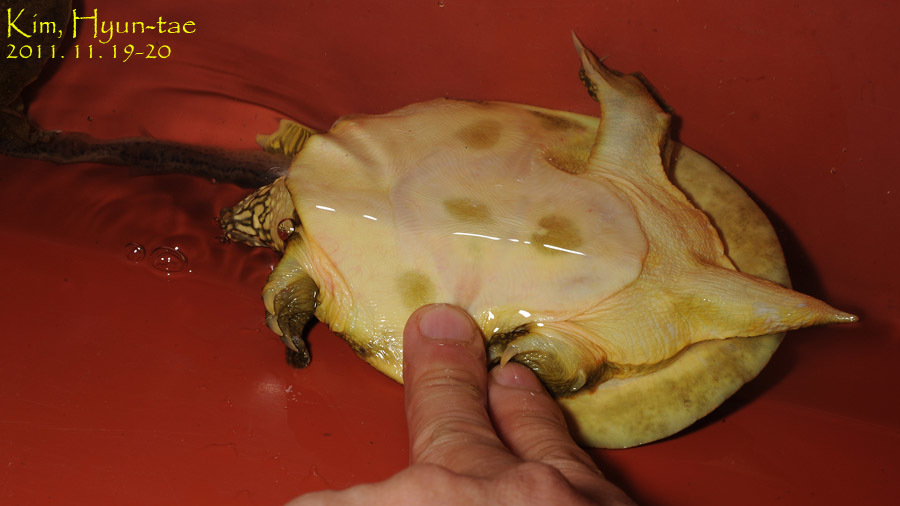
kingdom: Animalia
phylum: Chordata
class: Testudines
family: Trionychidae
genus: Pelodiscus
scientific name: Pelodiscus maackii
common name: Northern chinese softshell turtle
